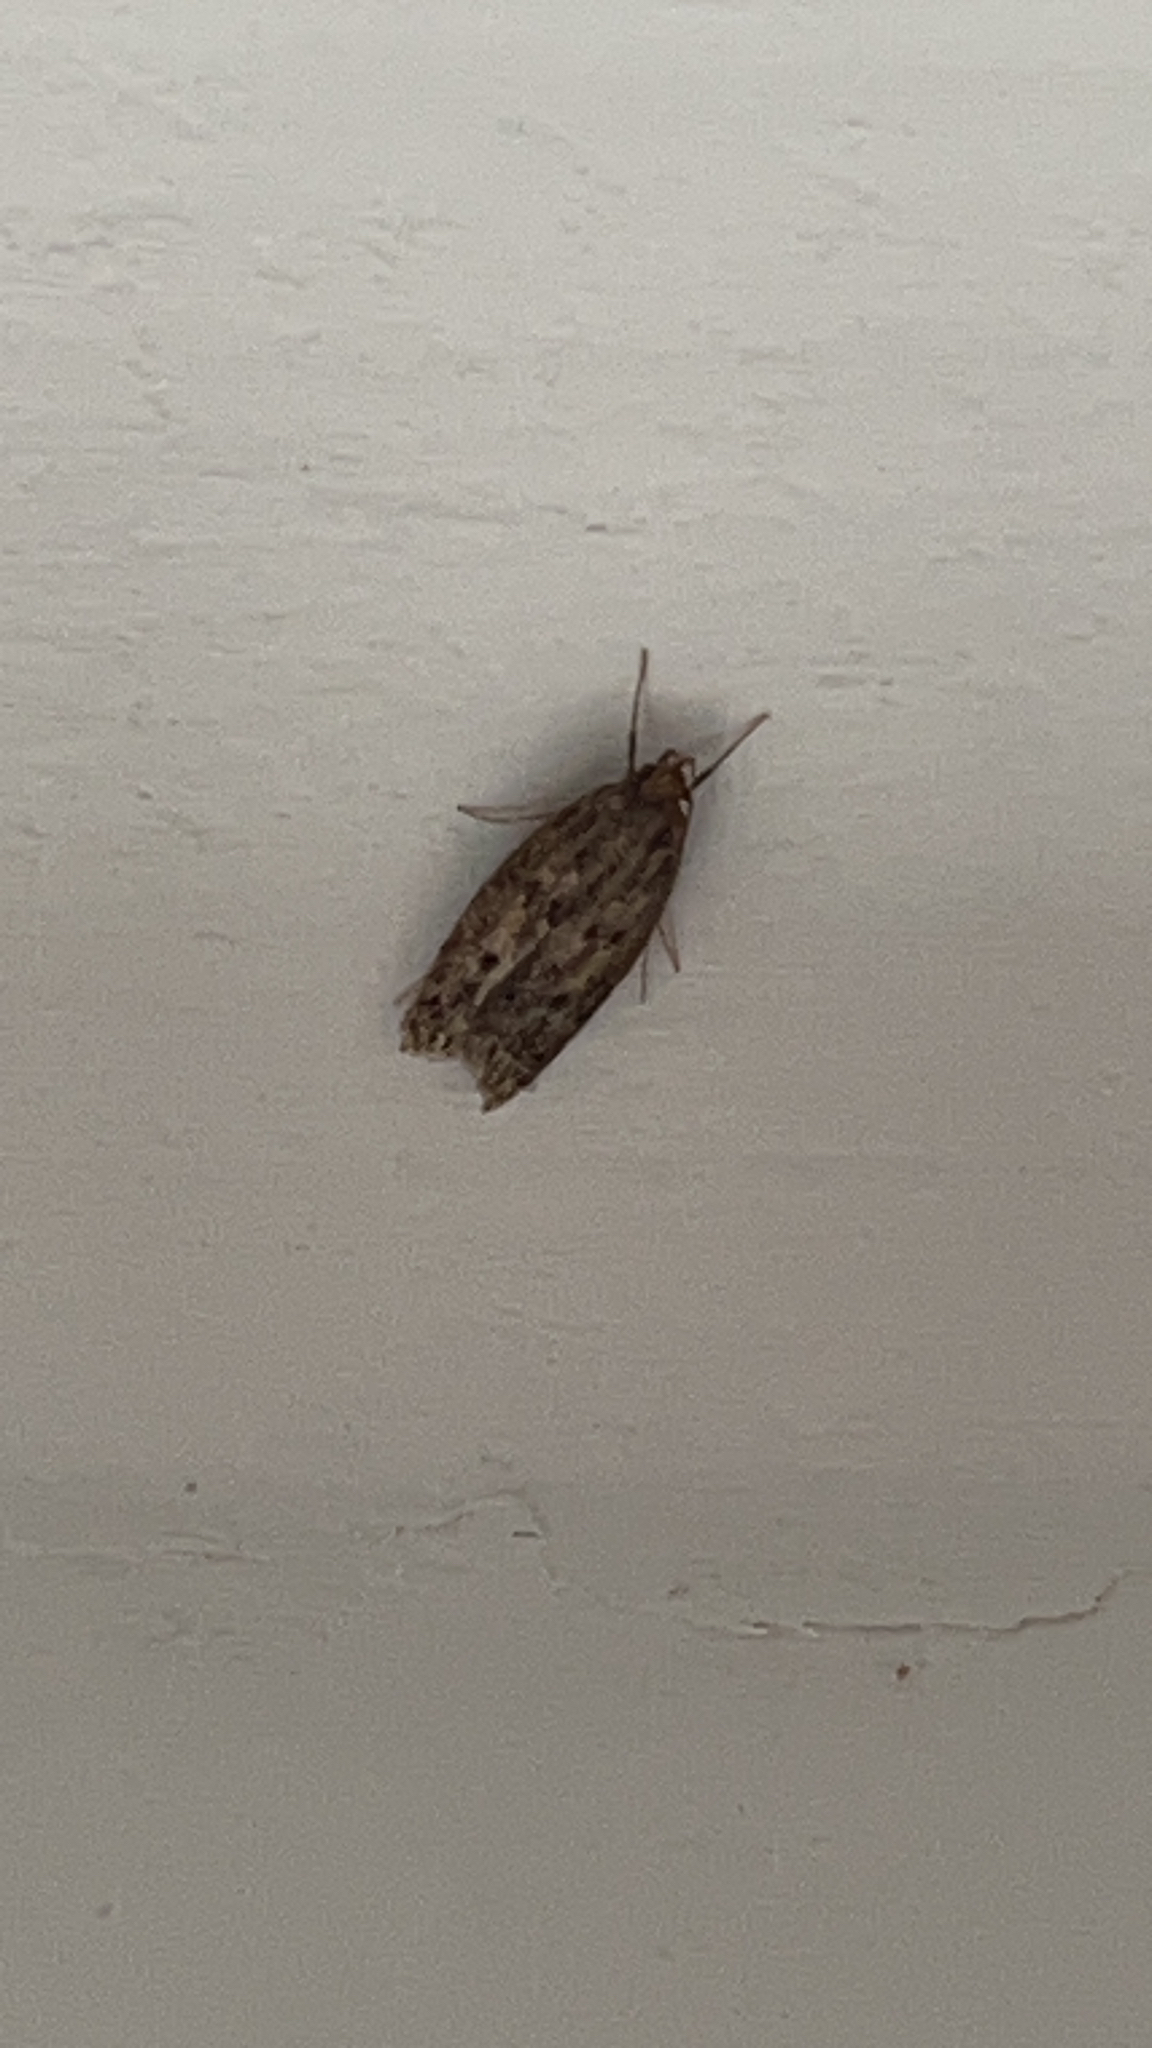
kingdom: Animalia
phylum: Arthropoda
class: Insecta
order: Lepidoptera
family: Oecophoridae
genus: Hofmannophila
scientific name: Hofmannophila pseudospretella
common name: Brown house moth
